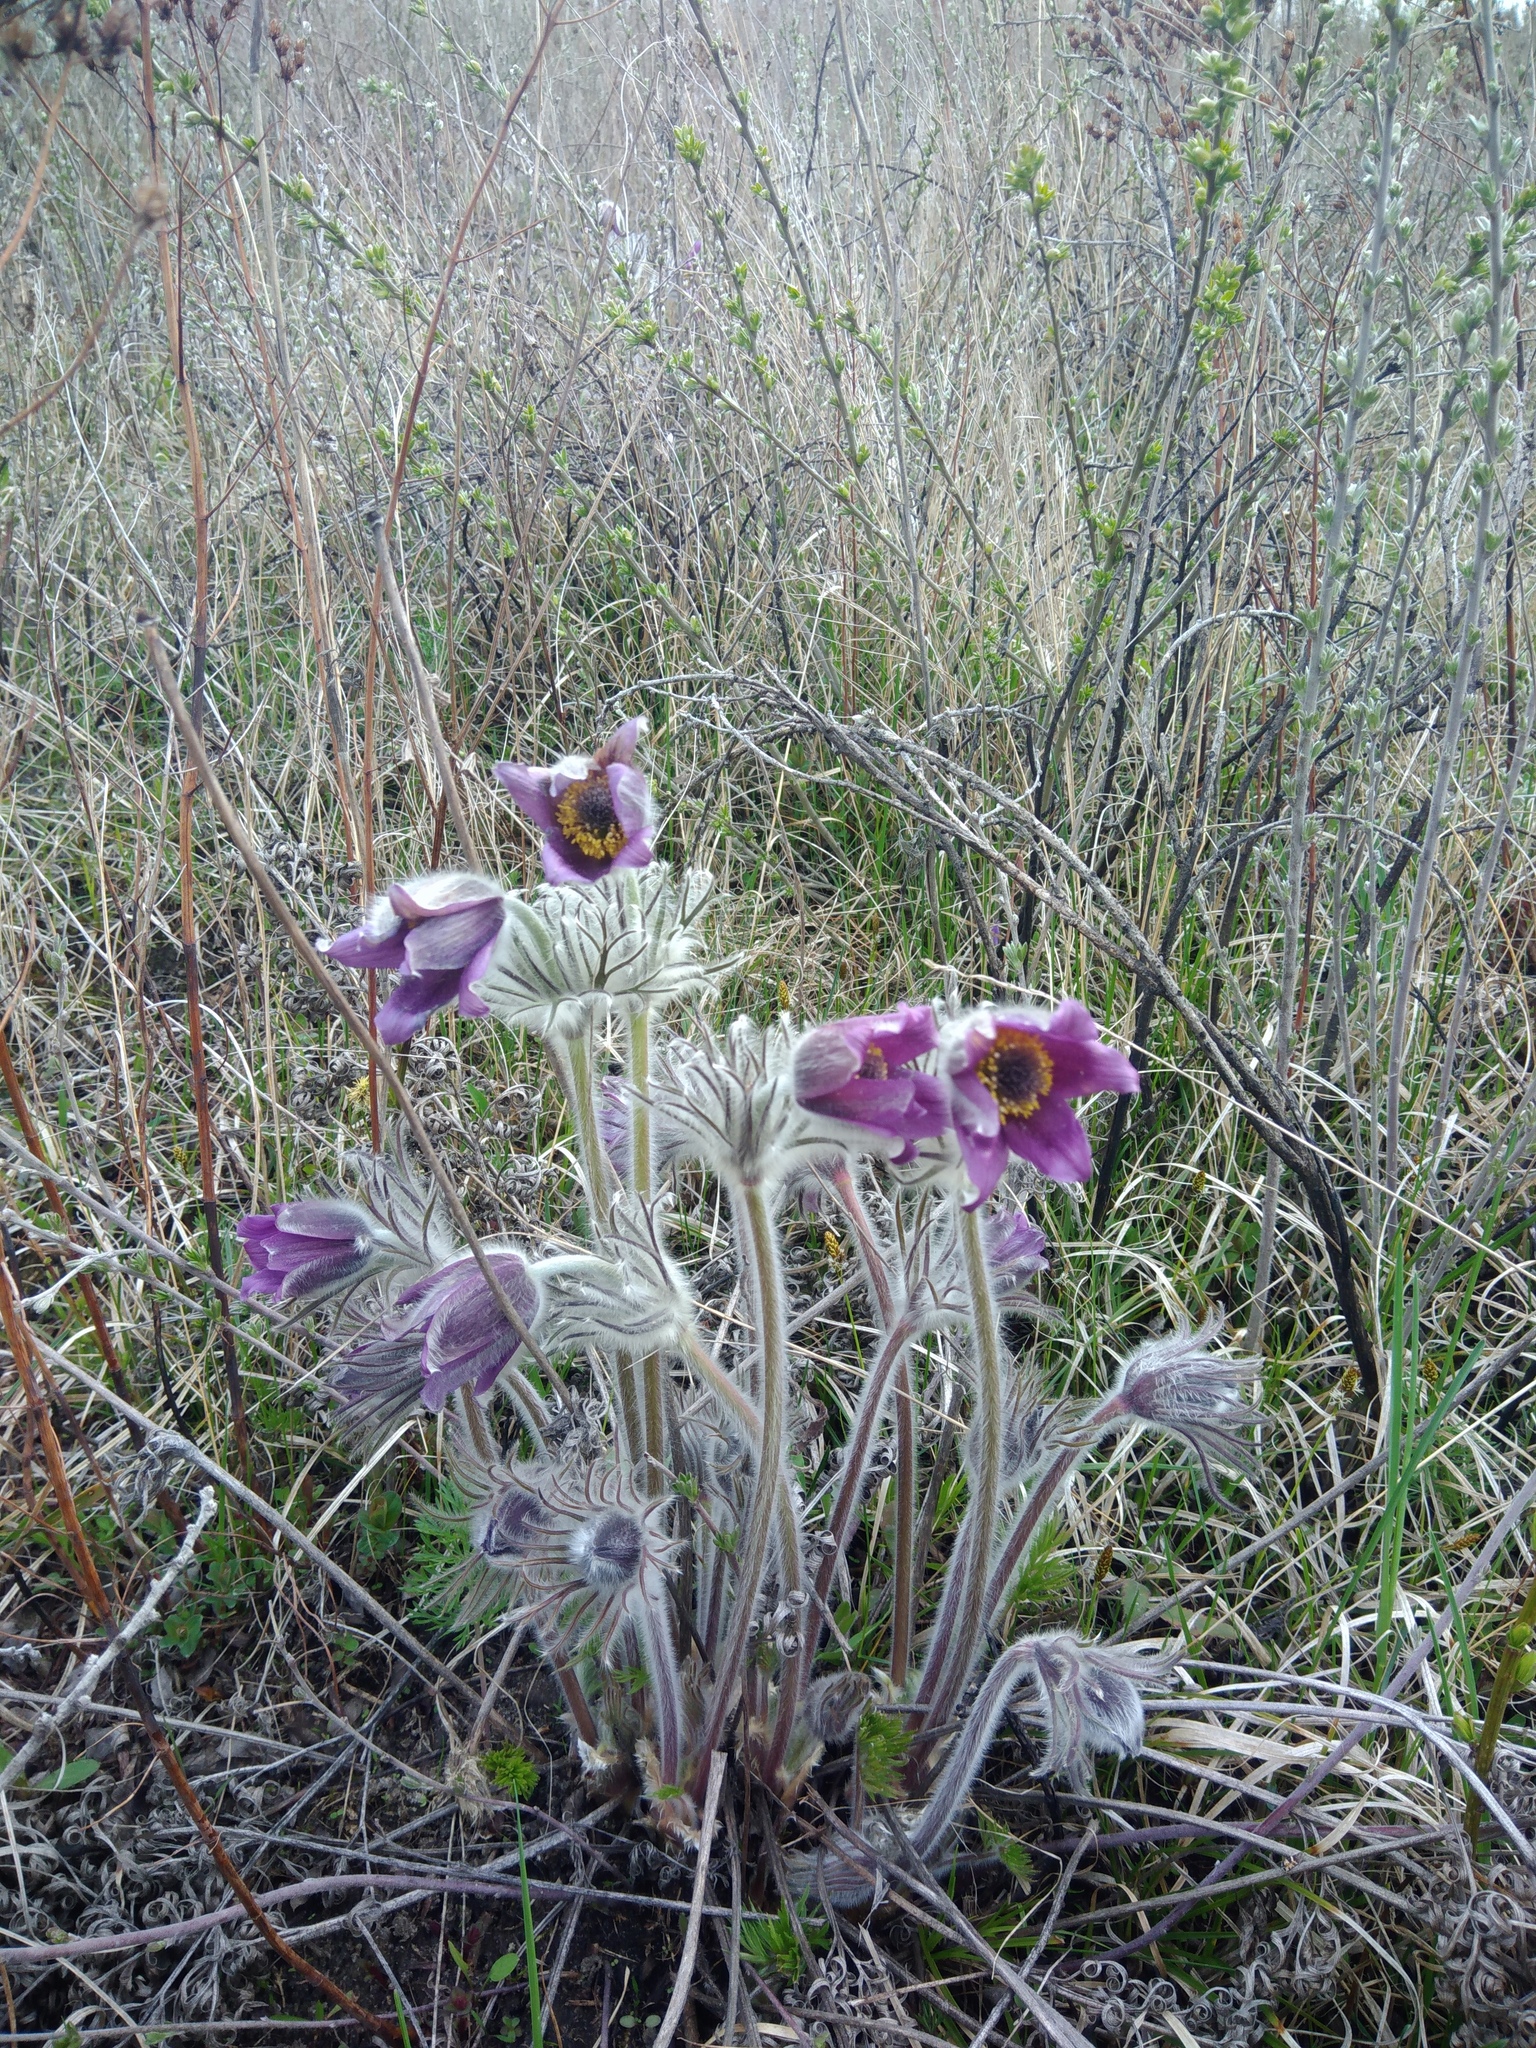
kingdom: Plantae
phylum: Tracheophyta
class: Magnoliopsida
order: Ranunculales
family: Ranunculaceae
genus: Pulsatilla
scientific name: Pulsatilla pratensis
